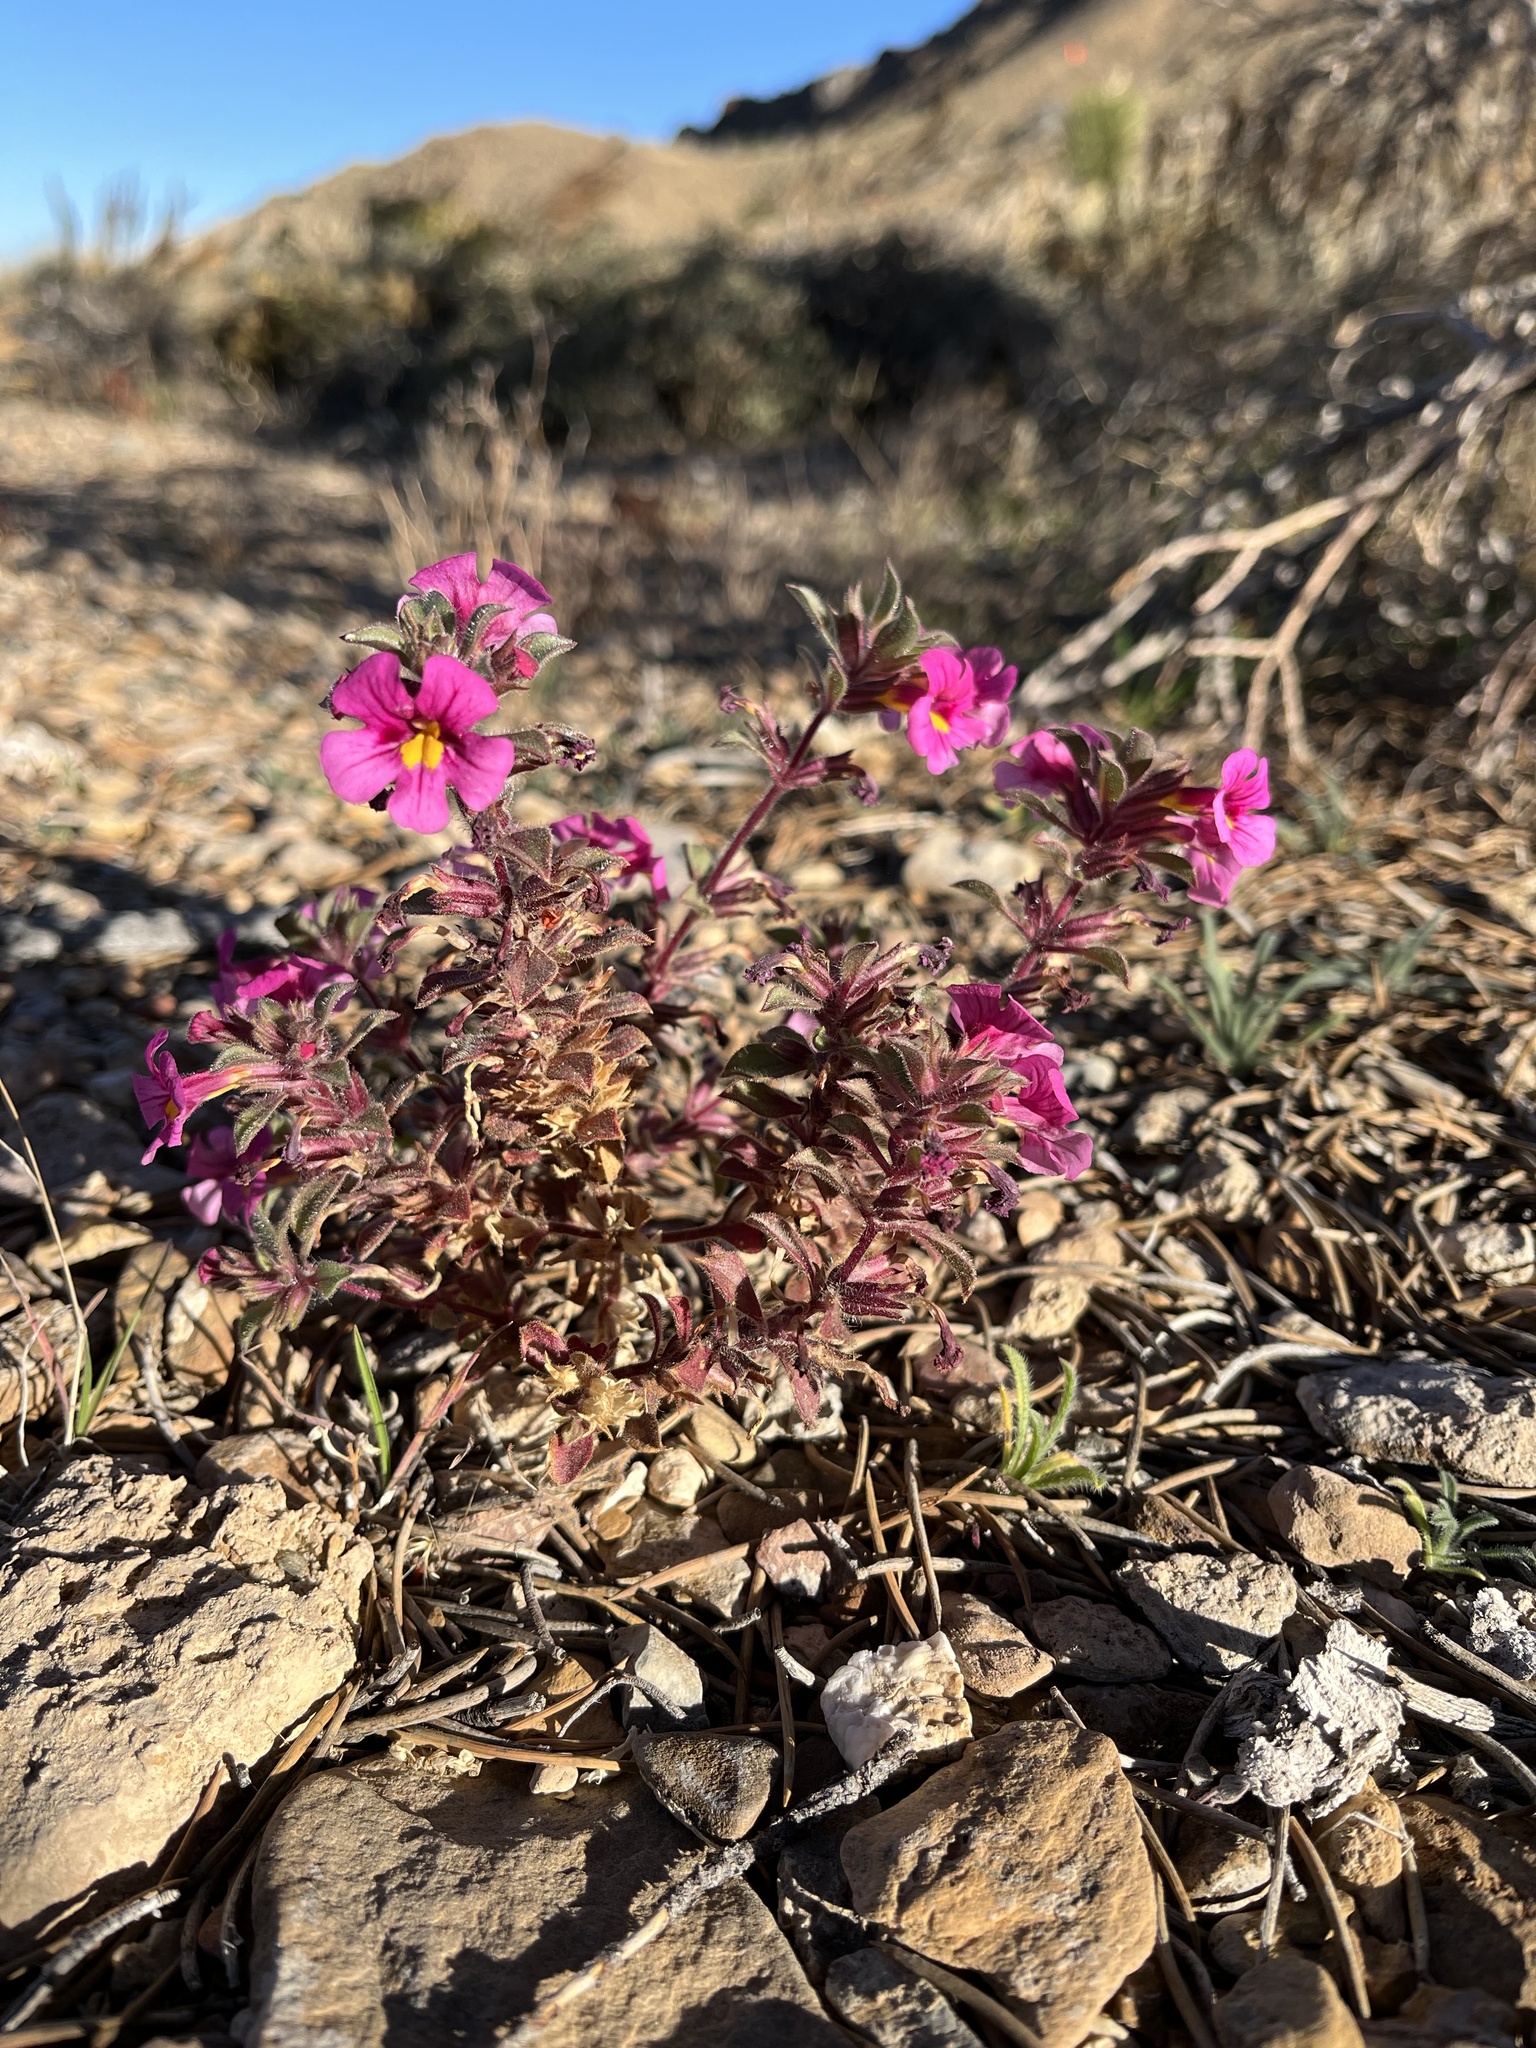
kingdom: Plantae
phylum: Tracheophyta
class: Magnoliopsida
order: Lamiales
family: Phrymaceae
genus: Diplacus
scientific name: Diplacus bigelovii
